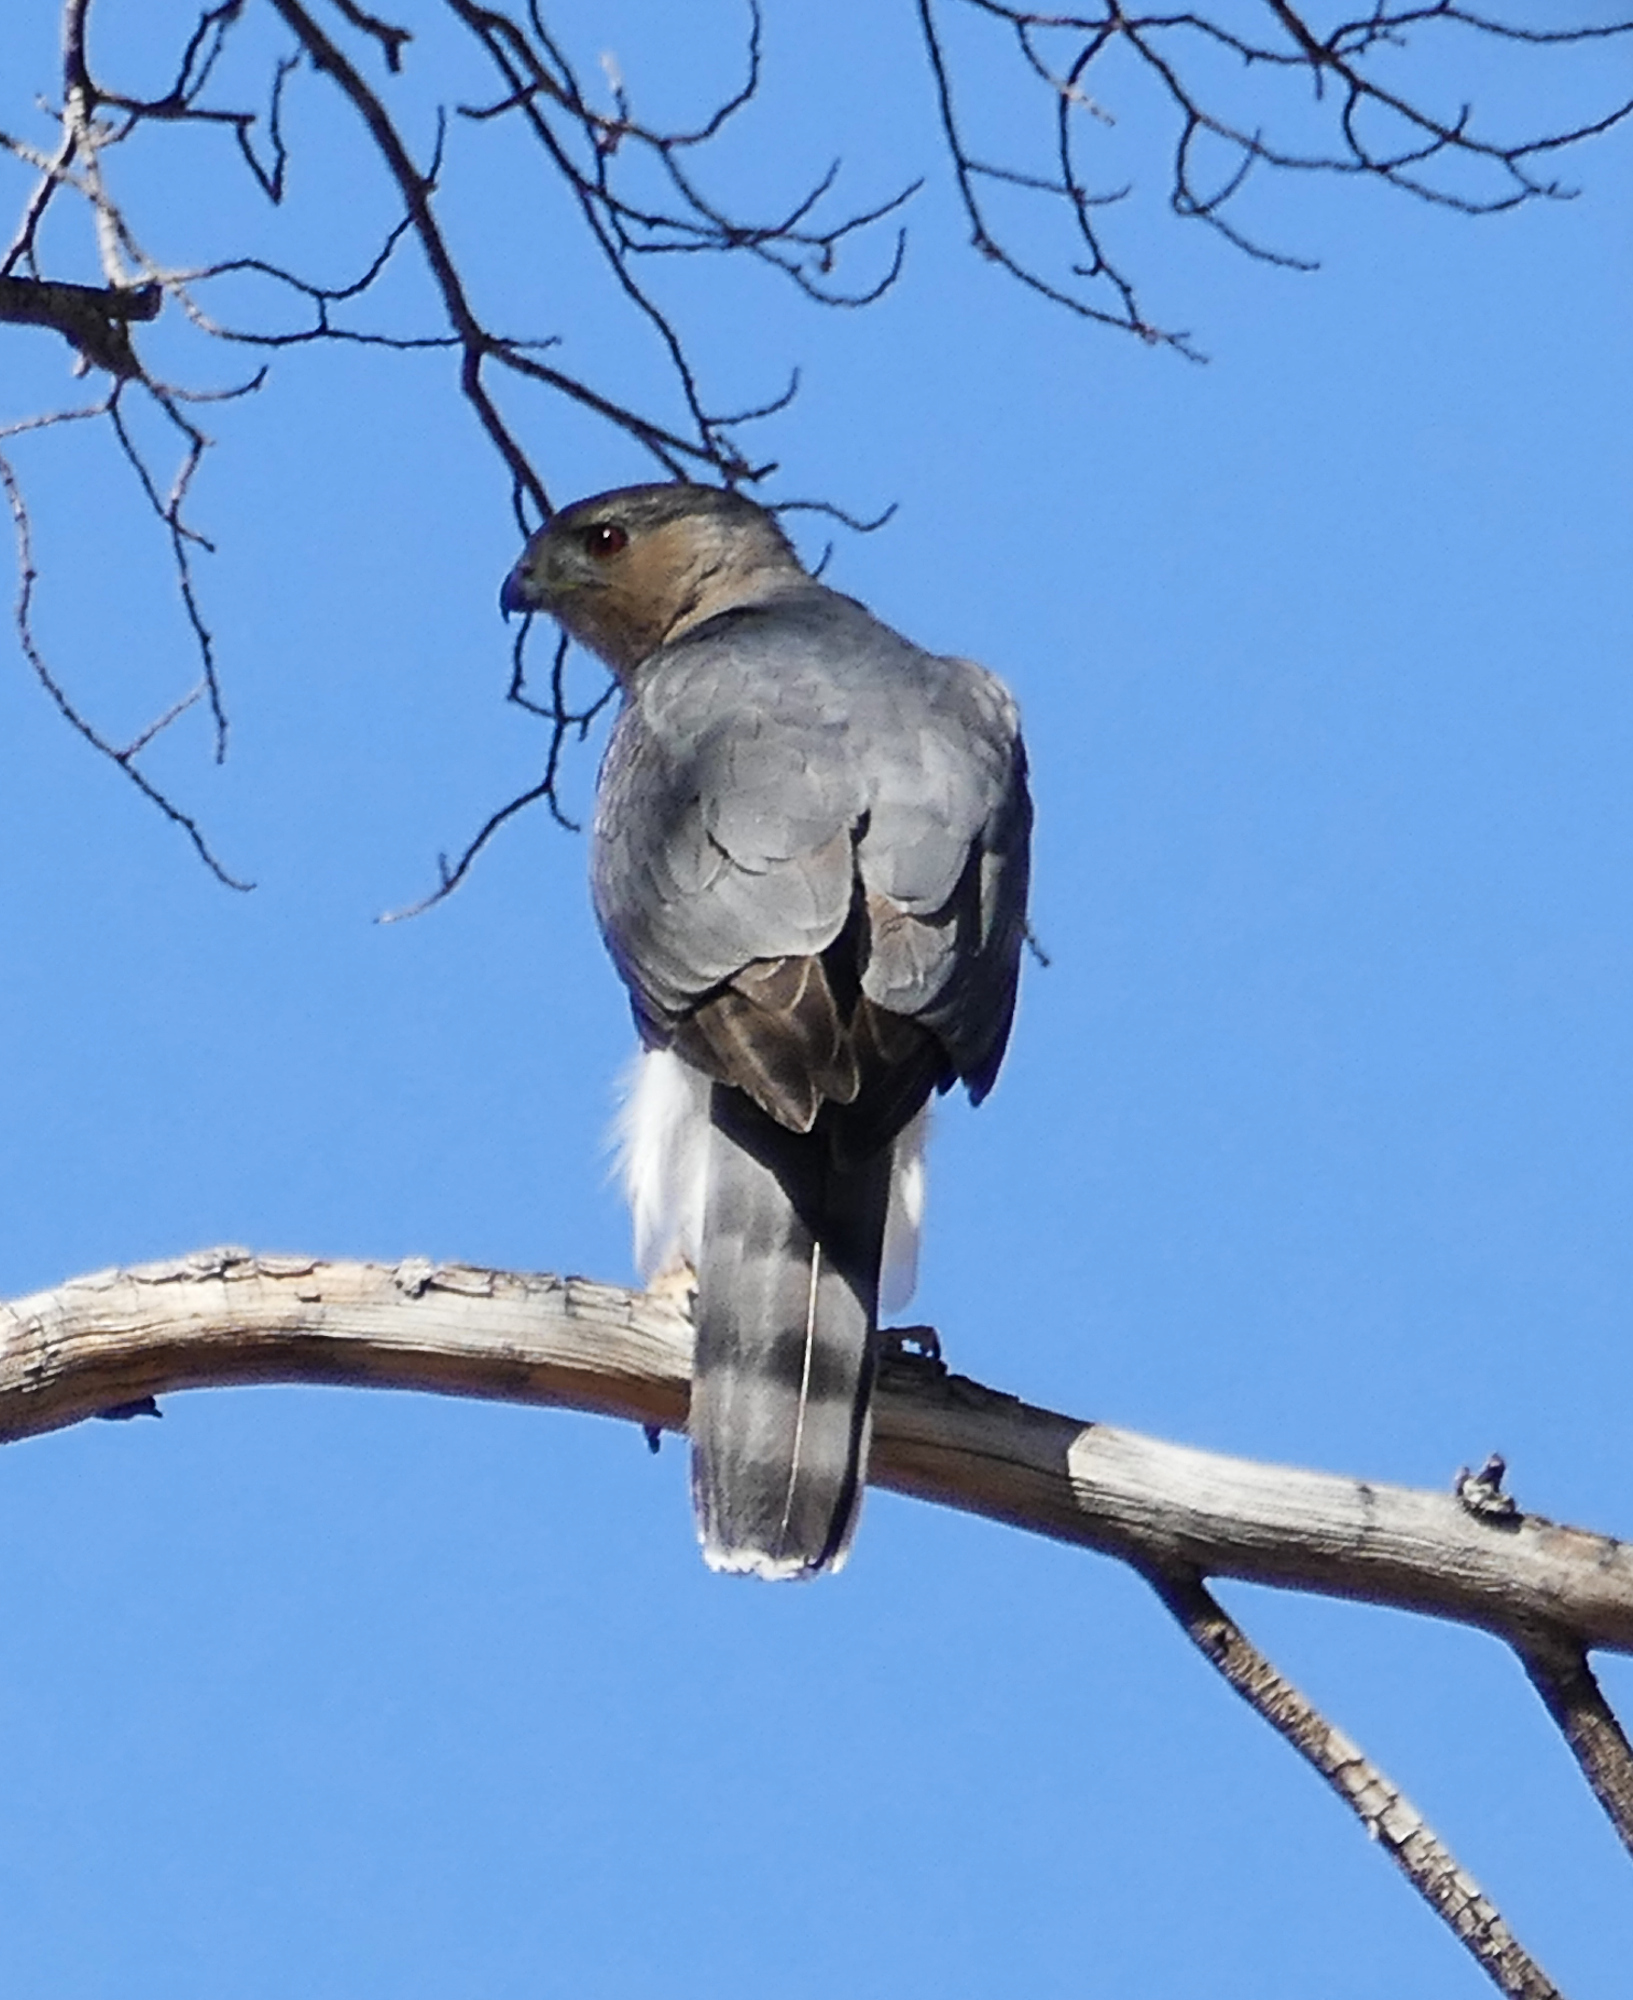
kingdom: Animalia
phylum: Chordata
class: Aves
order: Accipitriformes
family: Accipitridae
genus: Accipiter
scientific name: Accipiter cooperii
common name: Cooper's hawk
